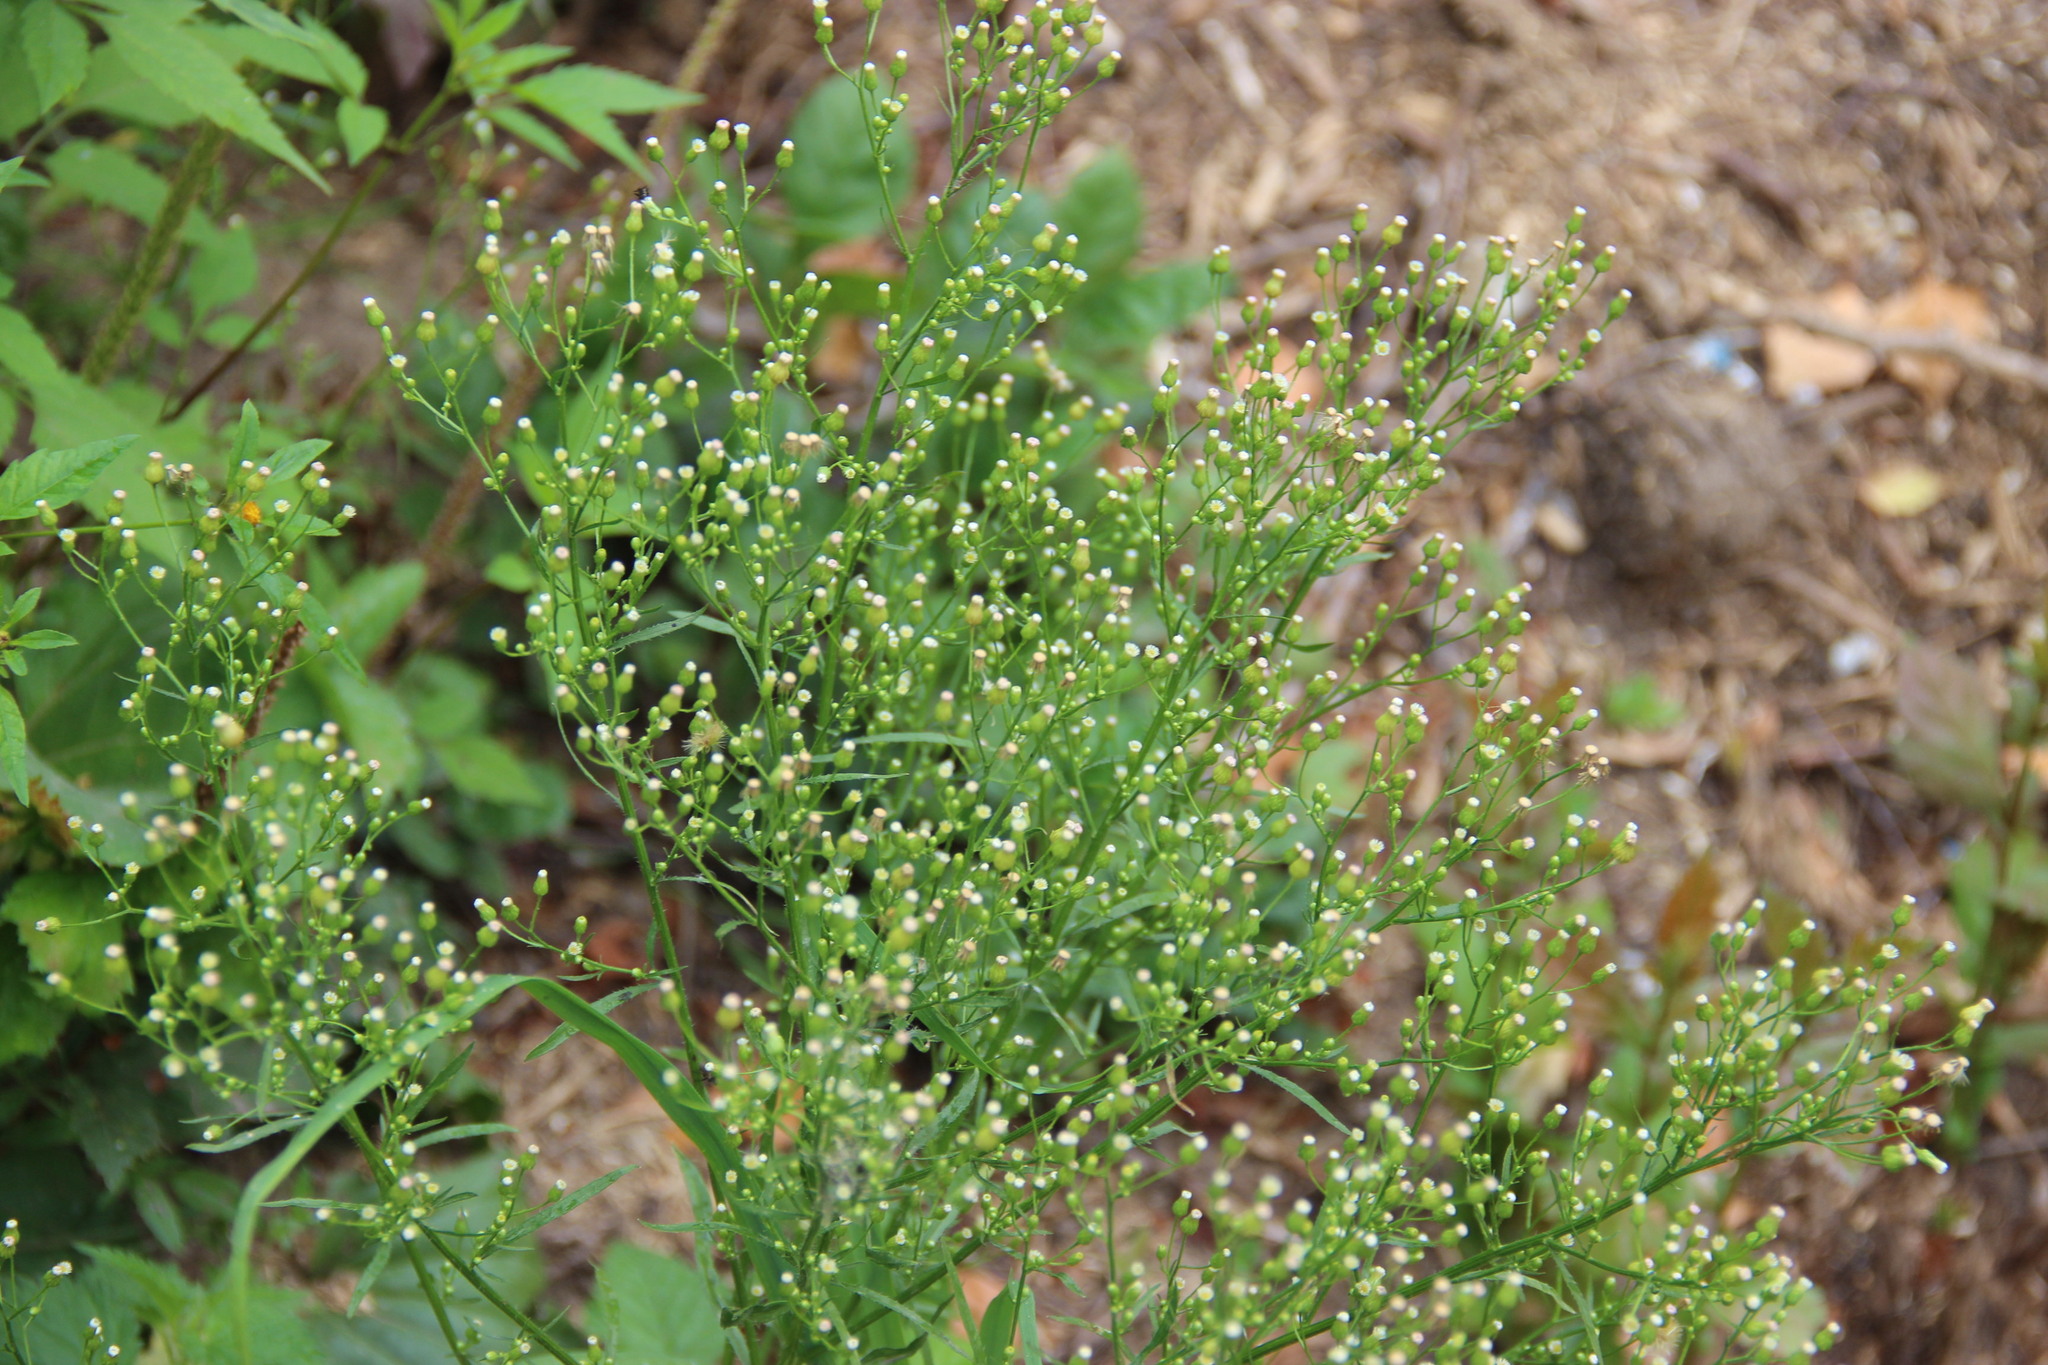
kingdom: Plantae
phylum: Tracheophyta
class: Magnoliopsida
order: Asterales
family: Asteraceae
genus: Erigeron
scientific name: Erigeron canadensis
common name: Canadian fleabane
